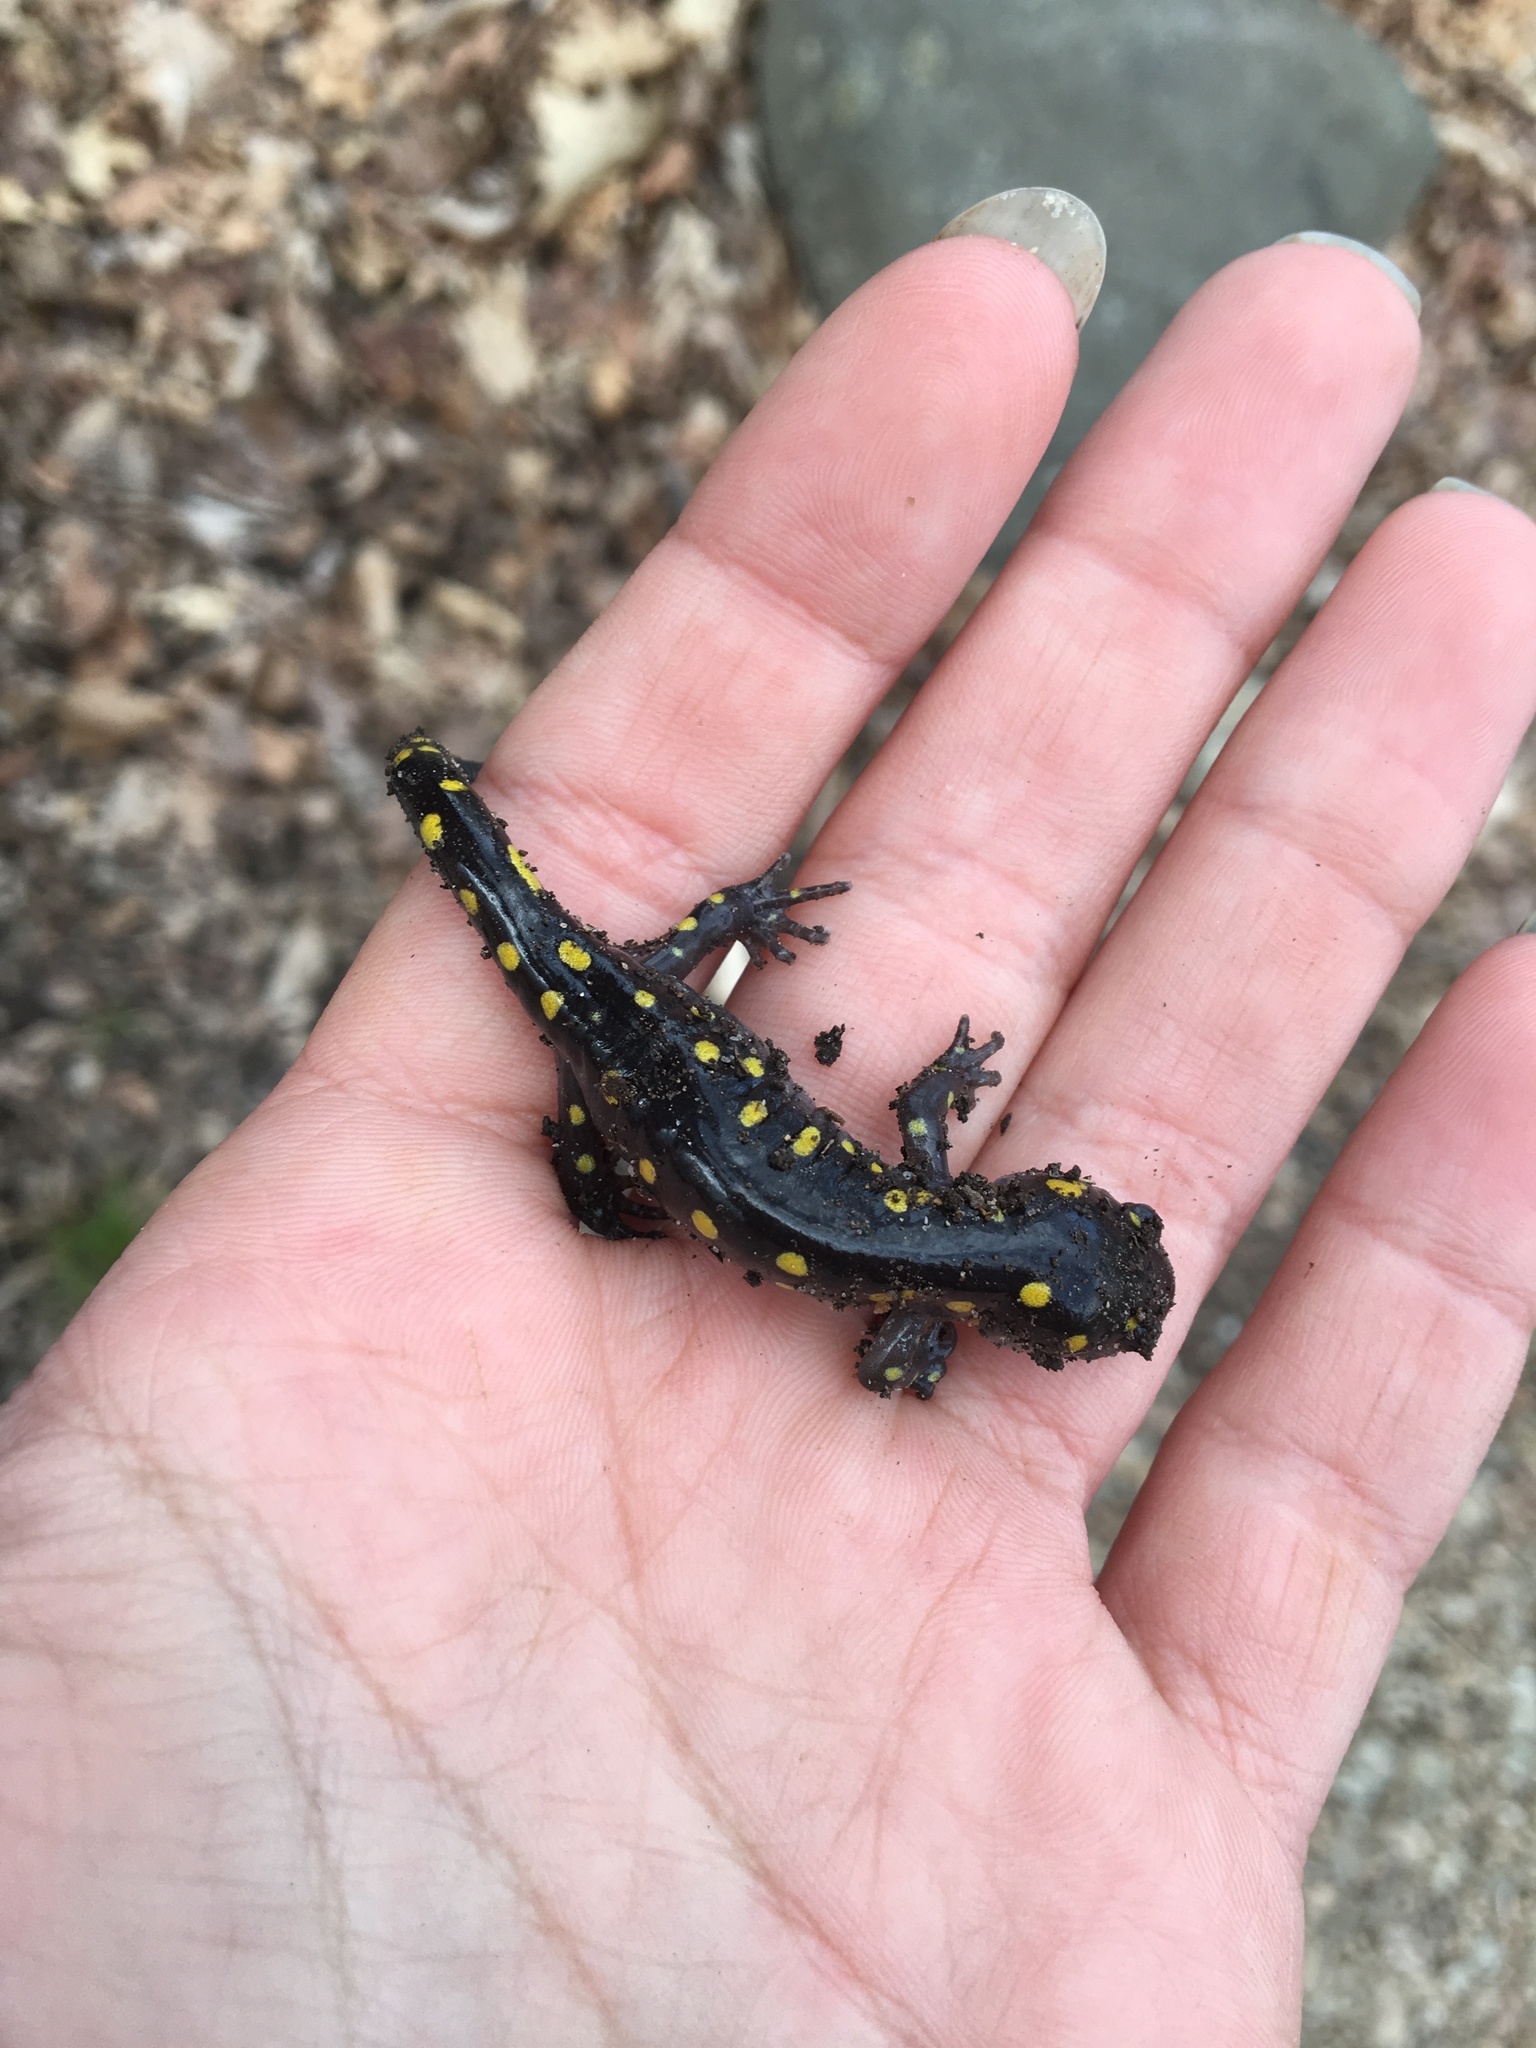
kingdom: Animalia
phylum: Chordata
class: Amphibia
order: Caudata
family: Ambystomatidae
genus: Ambystoma
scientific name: Ambystoma maculatum
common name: Spotted salamander
